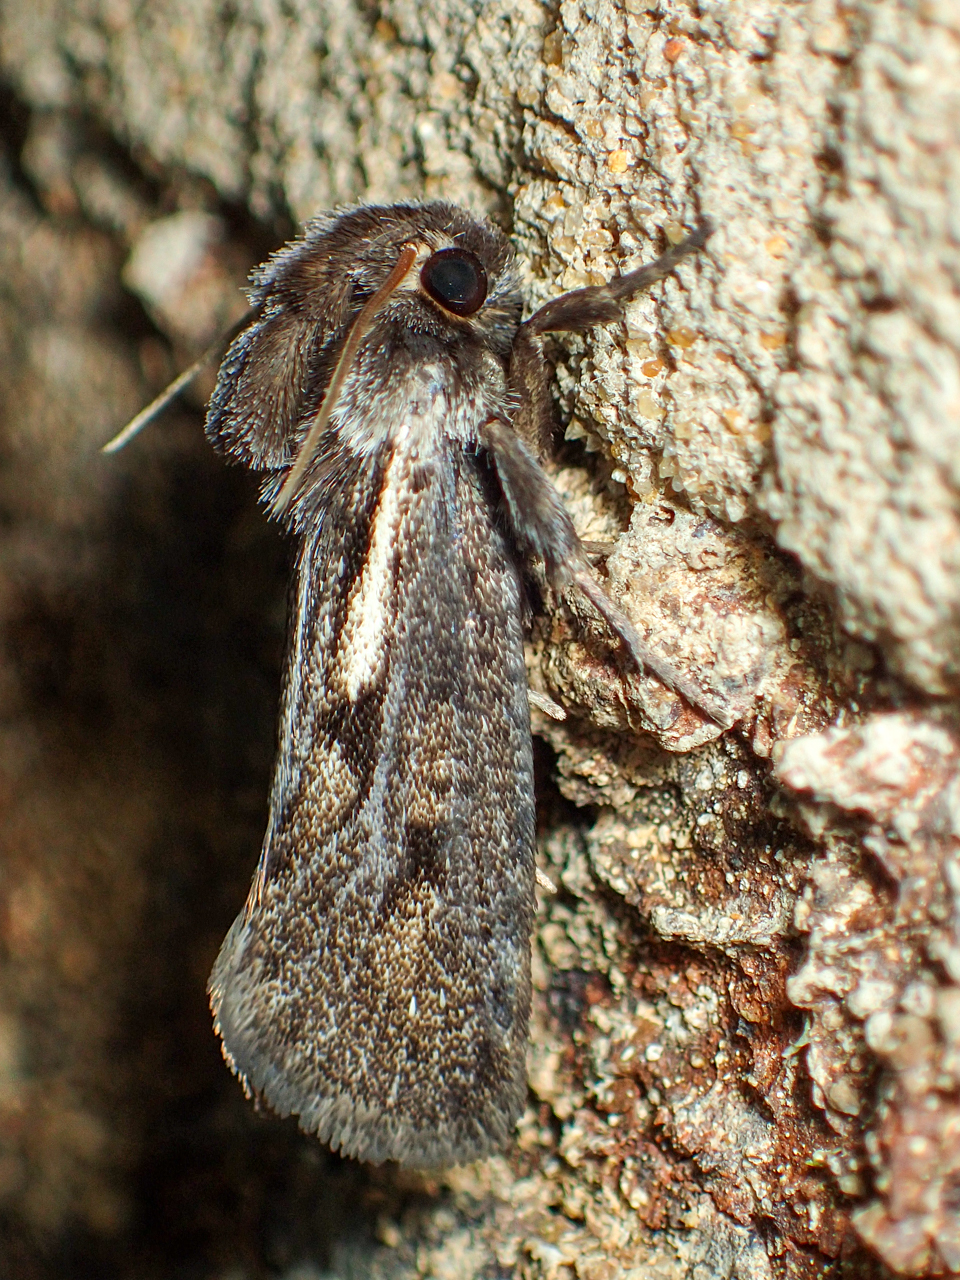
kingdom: Animalia
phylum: Arthropoda
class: Insecta
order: Lepidoptera
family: Tineidae
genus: Acrolophus
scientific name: Acrolophus popeanella
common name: Clemens' grass tubeworm moth
